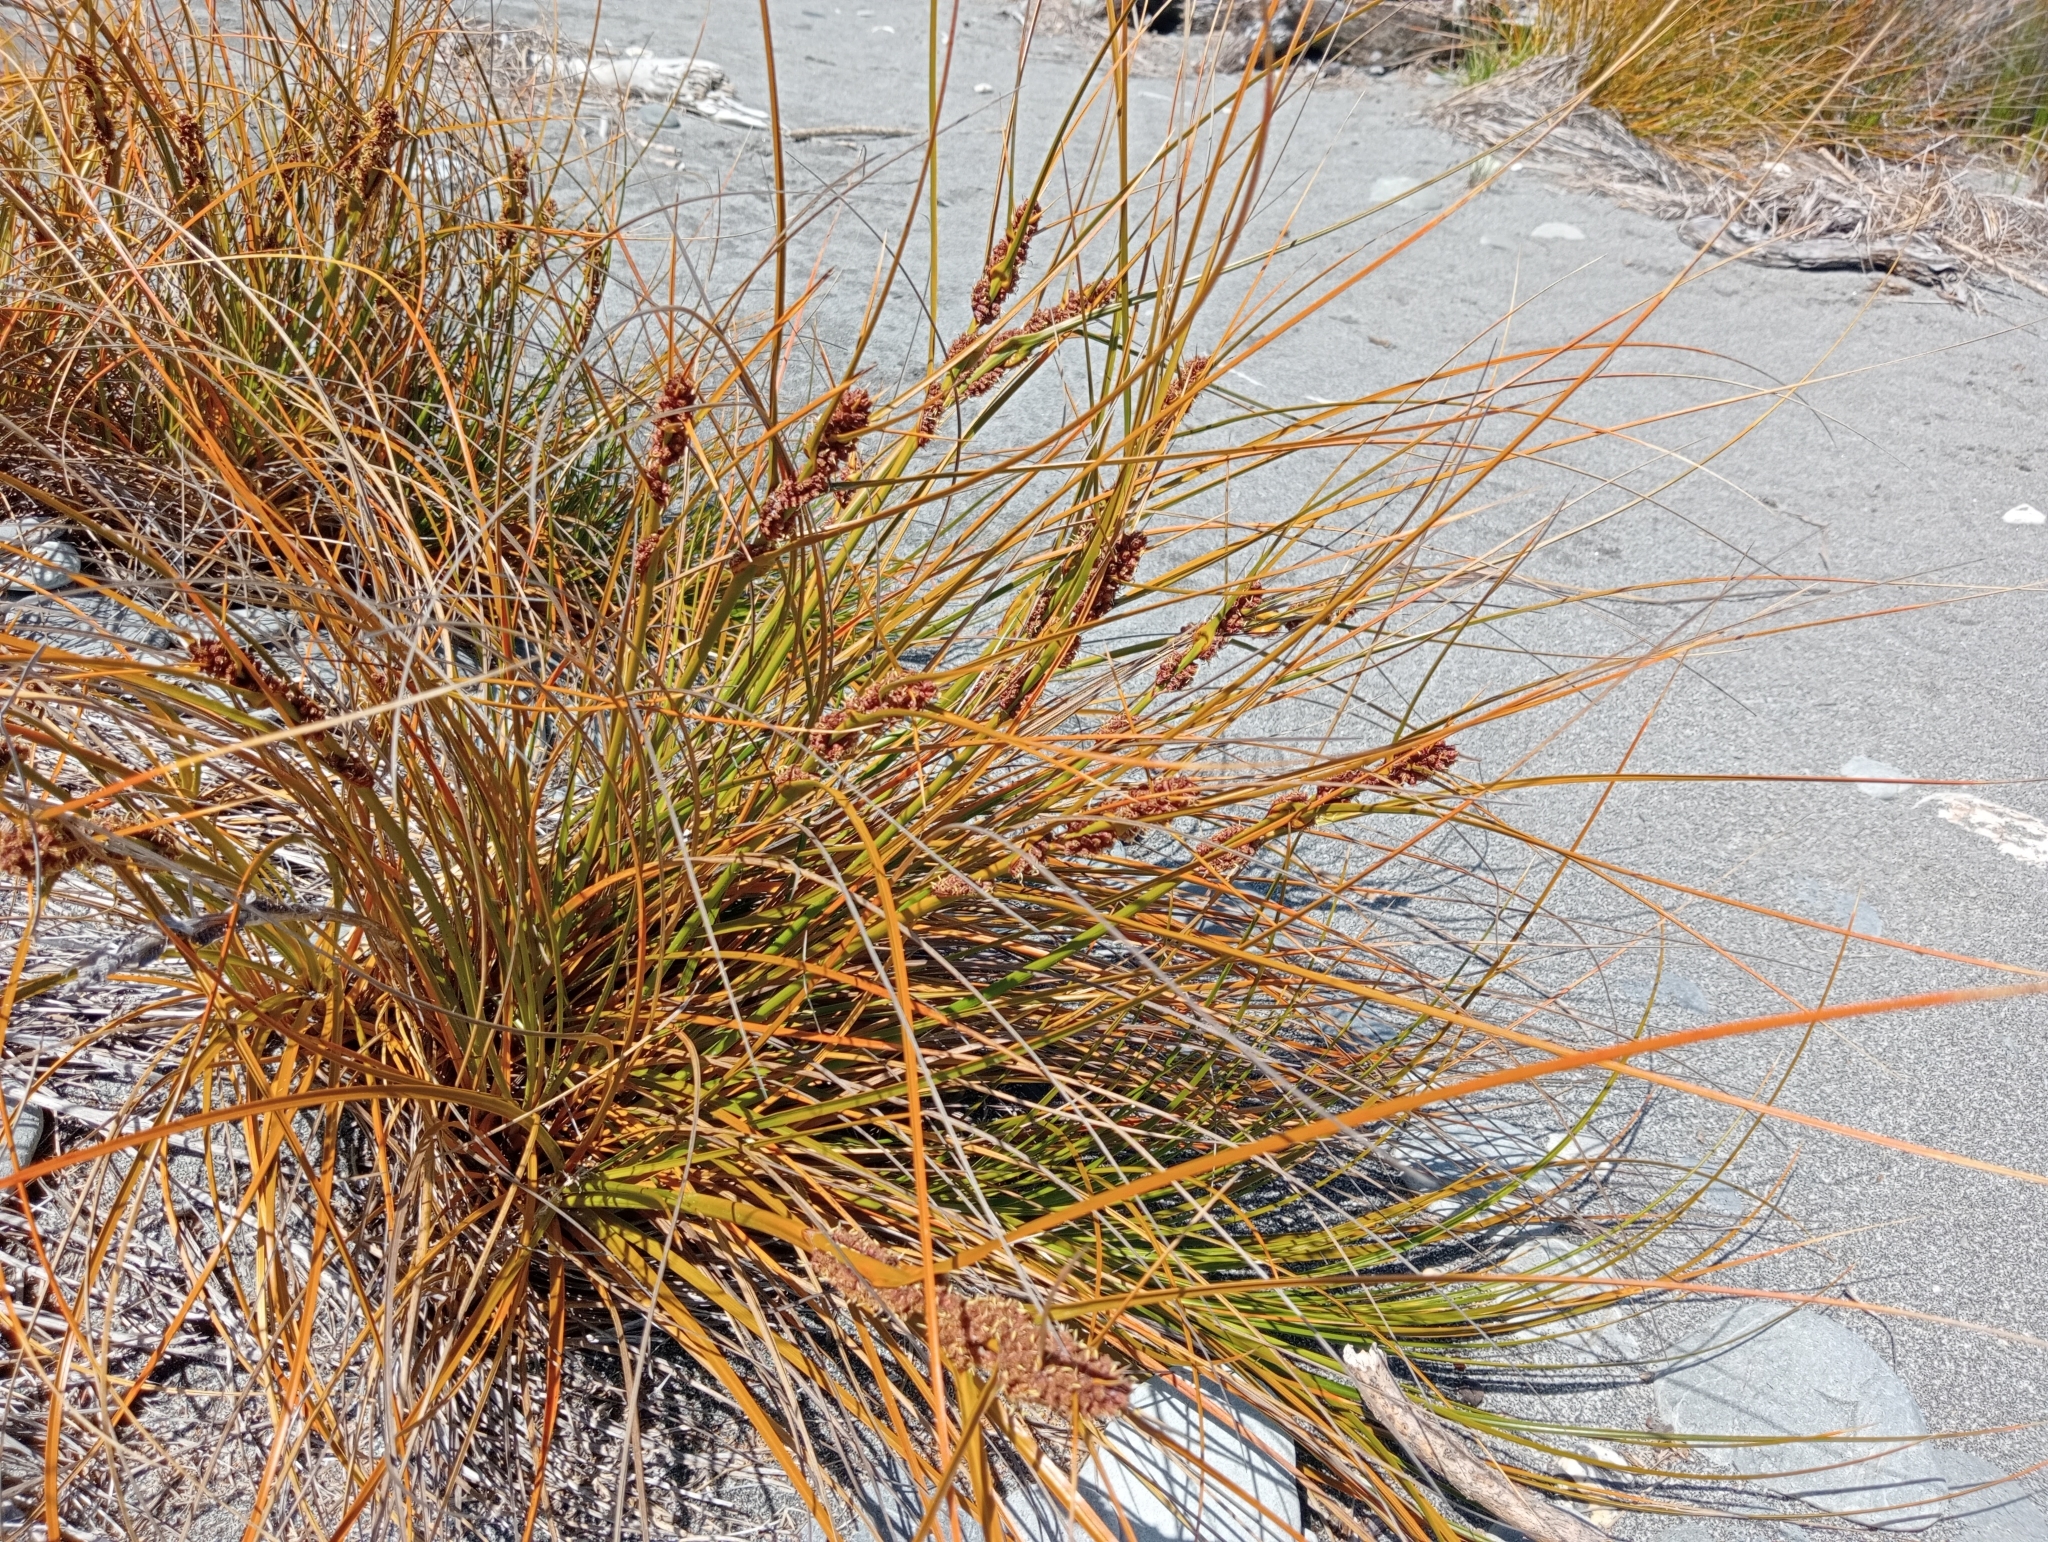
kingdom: Plantae
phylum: Tracheophyta
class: Liliopsida
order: Poales
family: Cyperaceae
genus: Ficinia
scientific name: Ficinia spiralis
